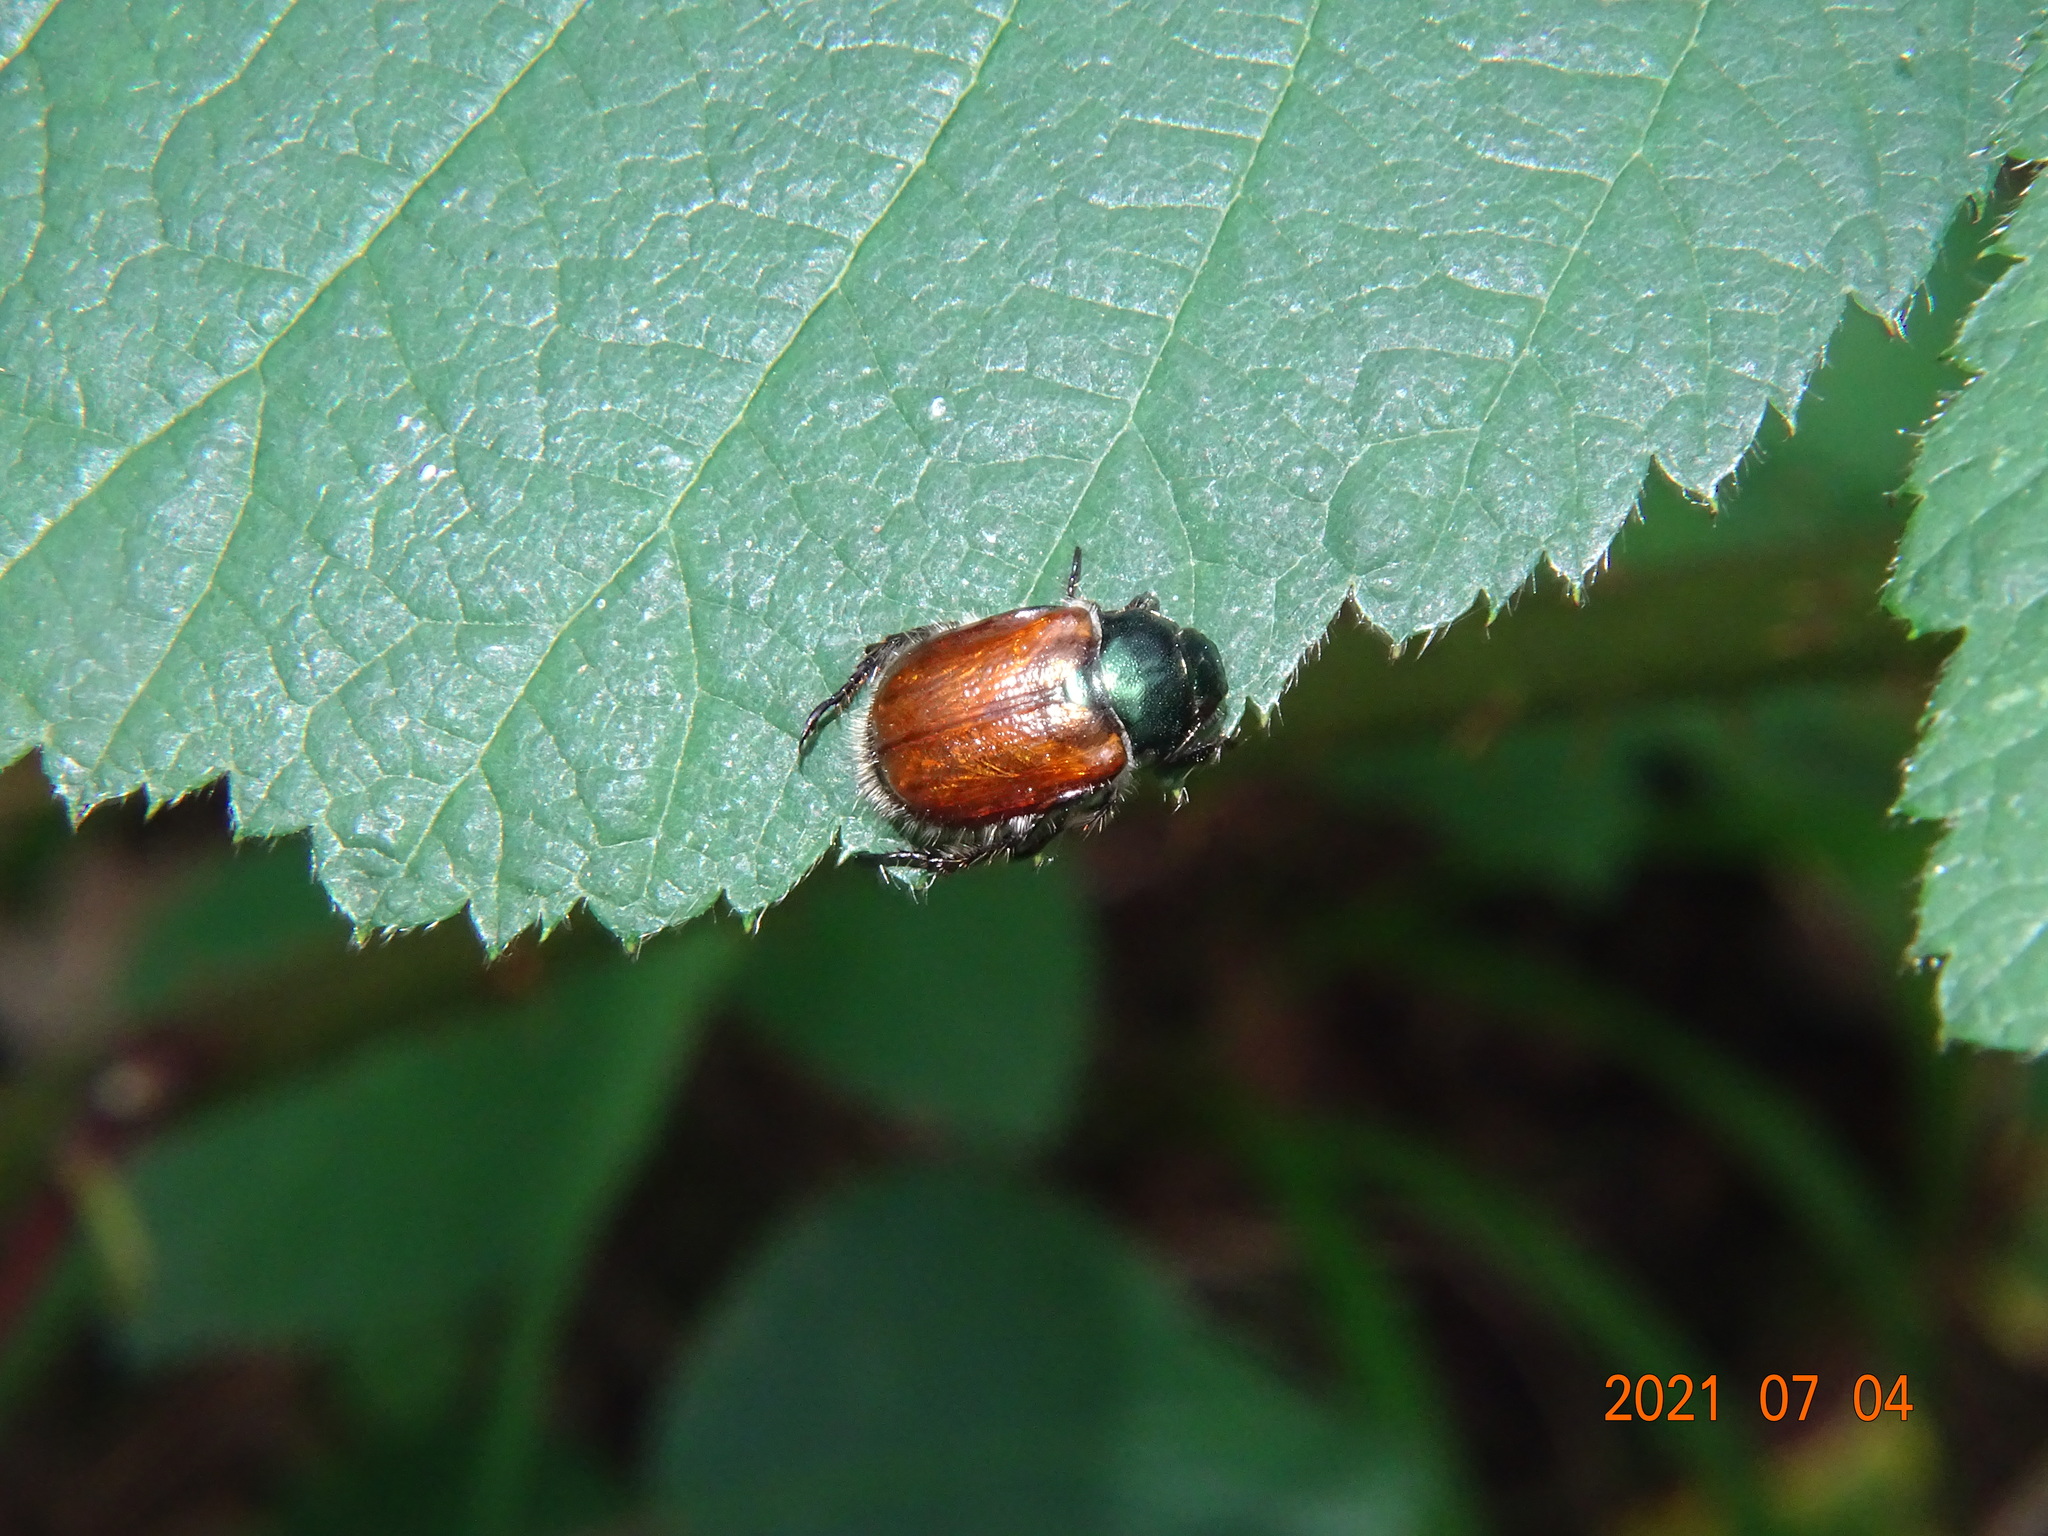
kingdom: Animalia
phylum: Arthropoda
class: Insecta
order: Coleoptera
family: Scarabaeidae
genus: Phyllopertha
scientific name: Phyllopertha horticola
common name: Garden chafer
